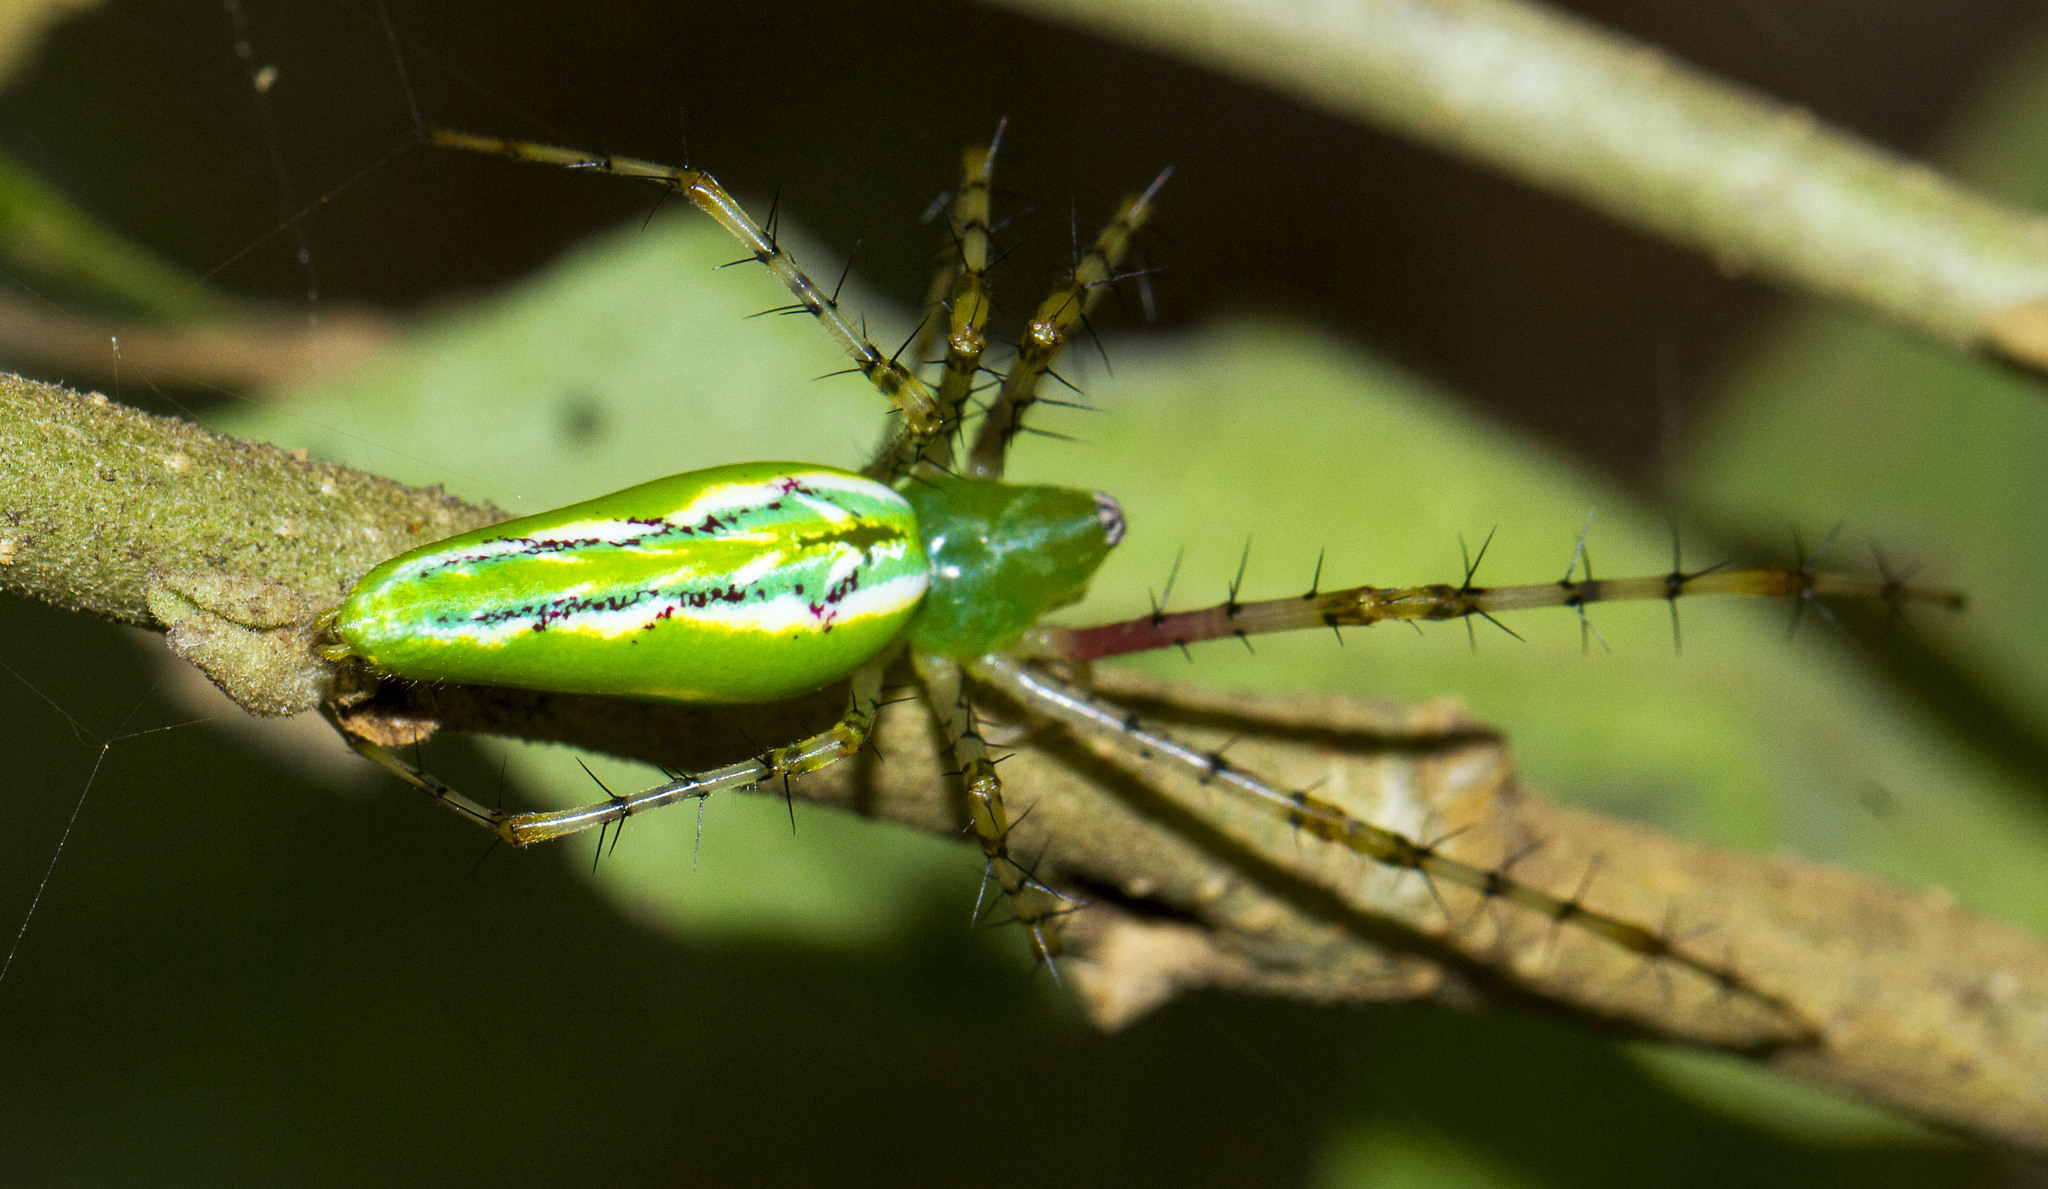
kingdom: Animalia
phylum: Arthropoda
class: Arachnida
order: Araneae
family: Oxyopidae
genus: Peucetia
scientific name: Peucetia madalenae
